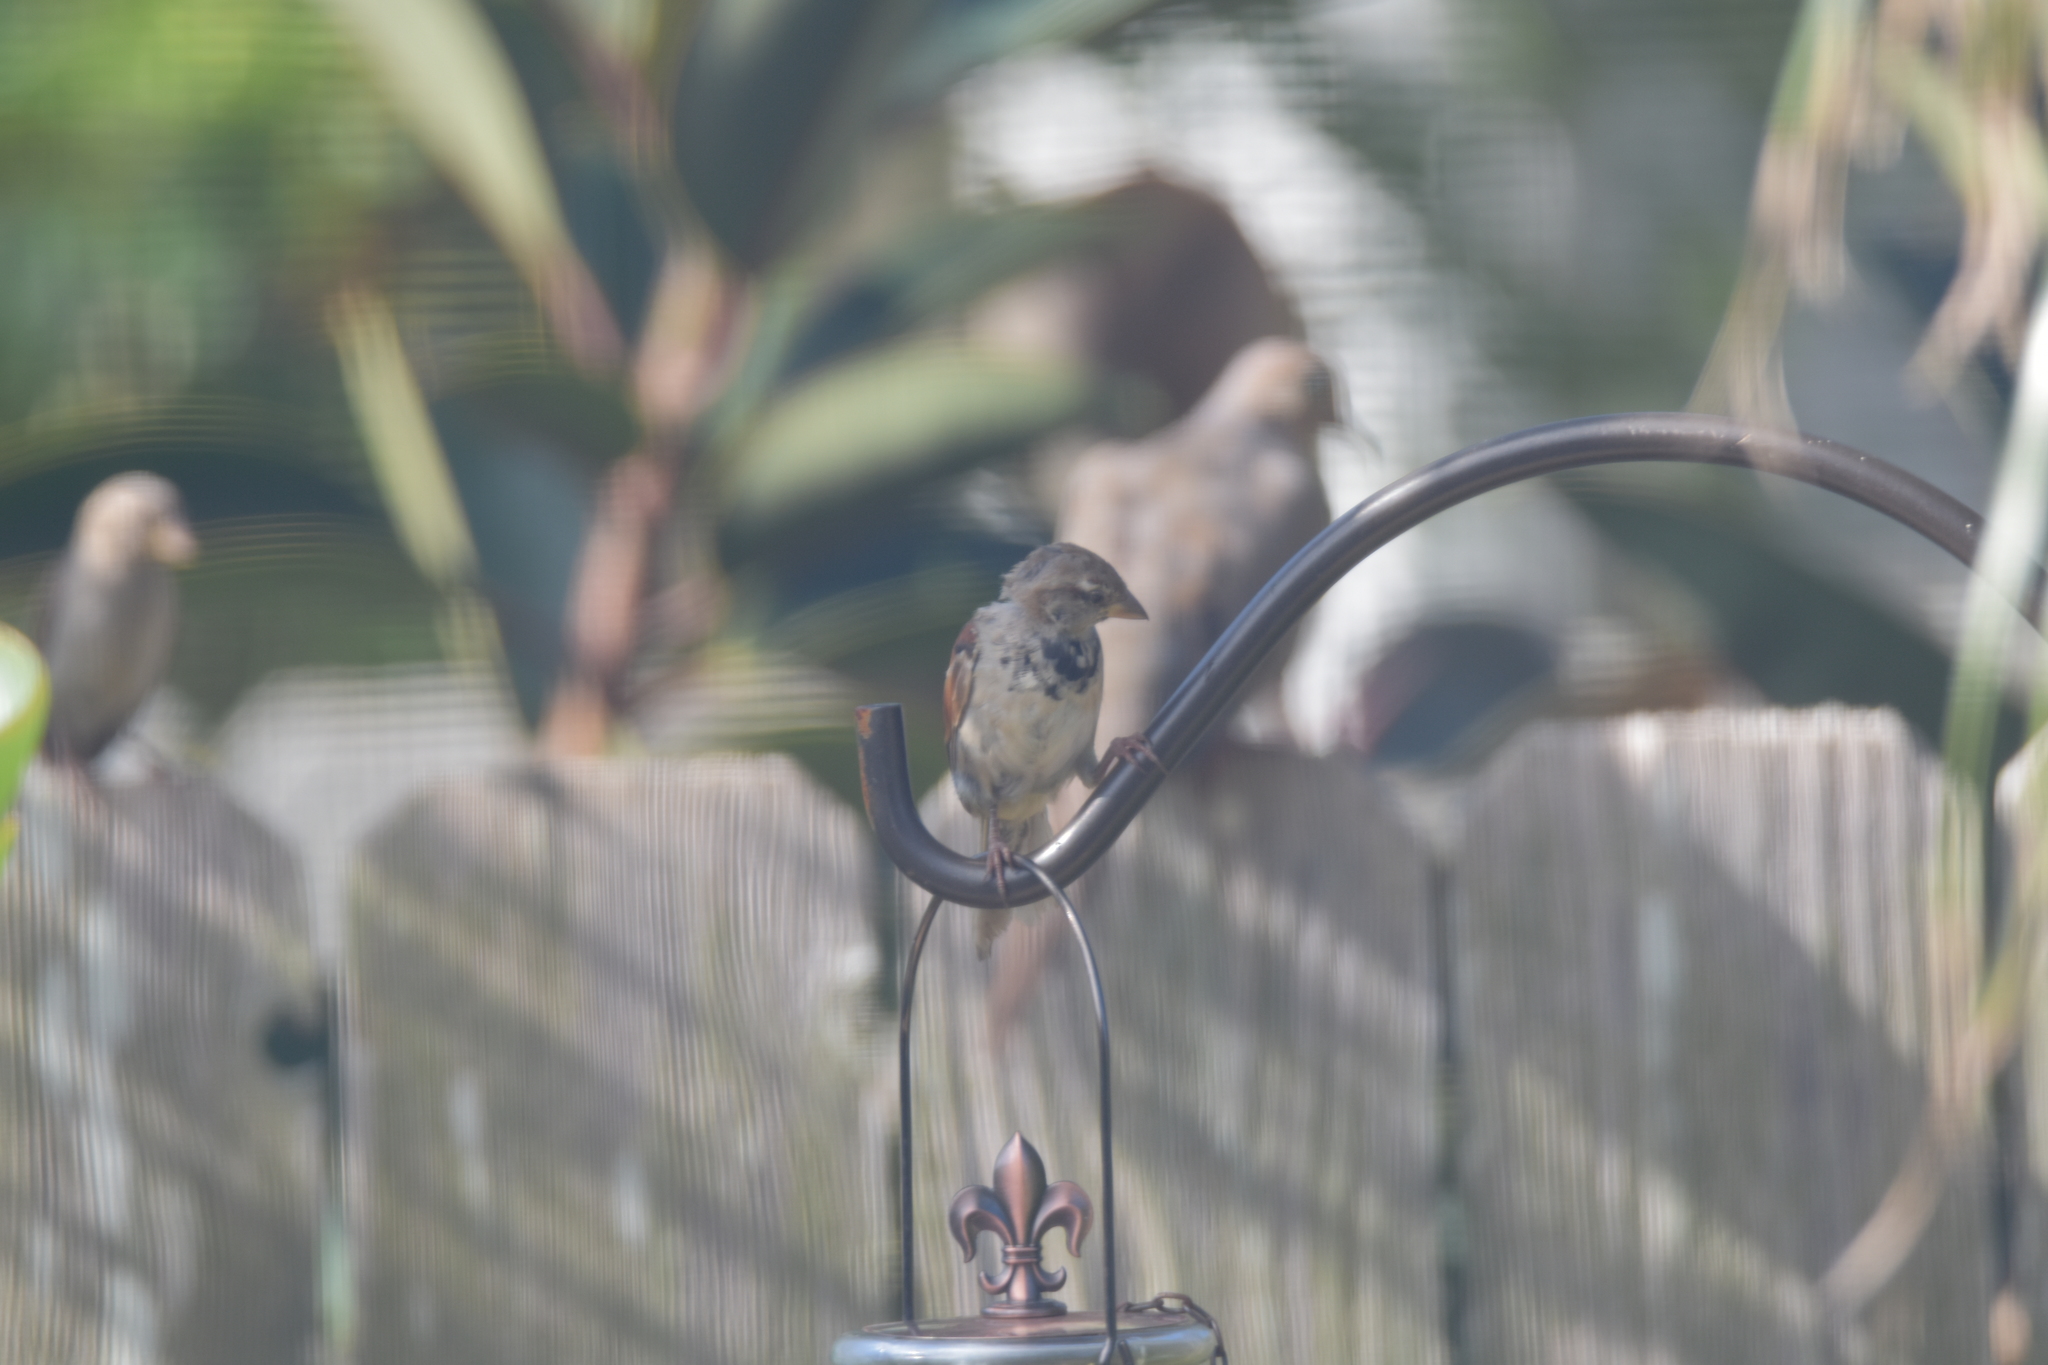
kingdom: Animalia
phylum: Chordata
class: Aves
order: Passeriformes
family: Passeridae
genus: Passer
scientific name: Passer domesticus
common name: House sparrow
